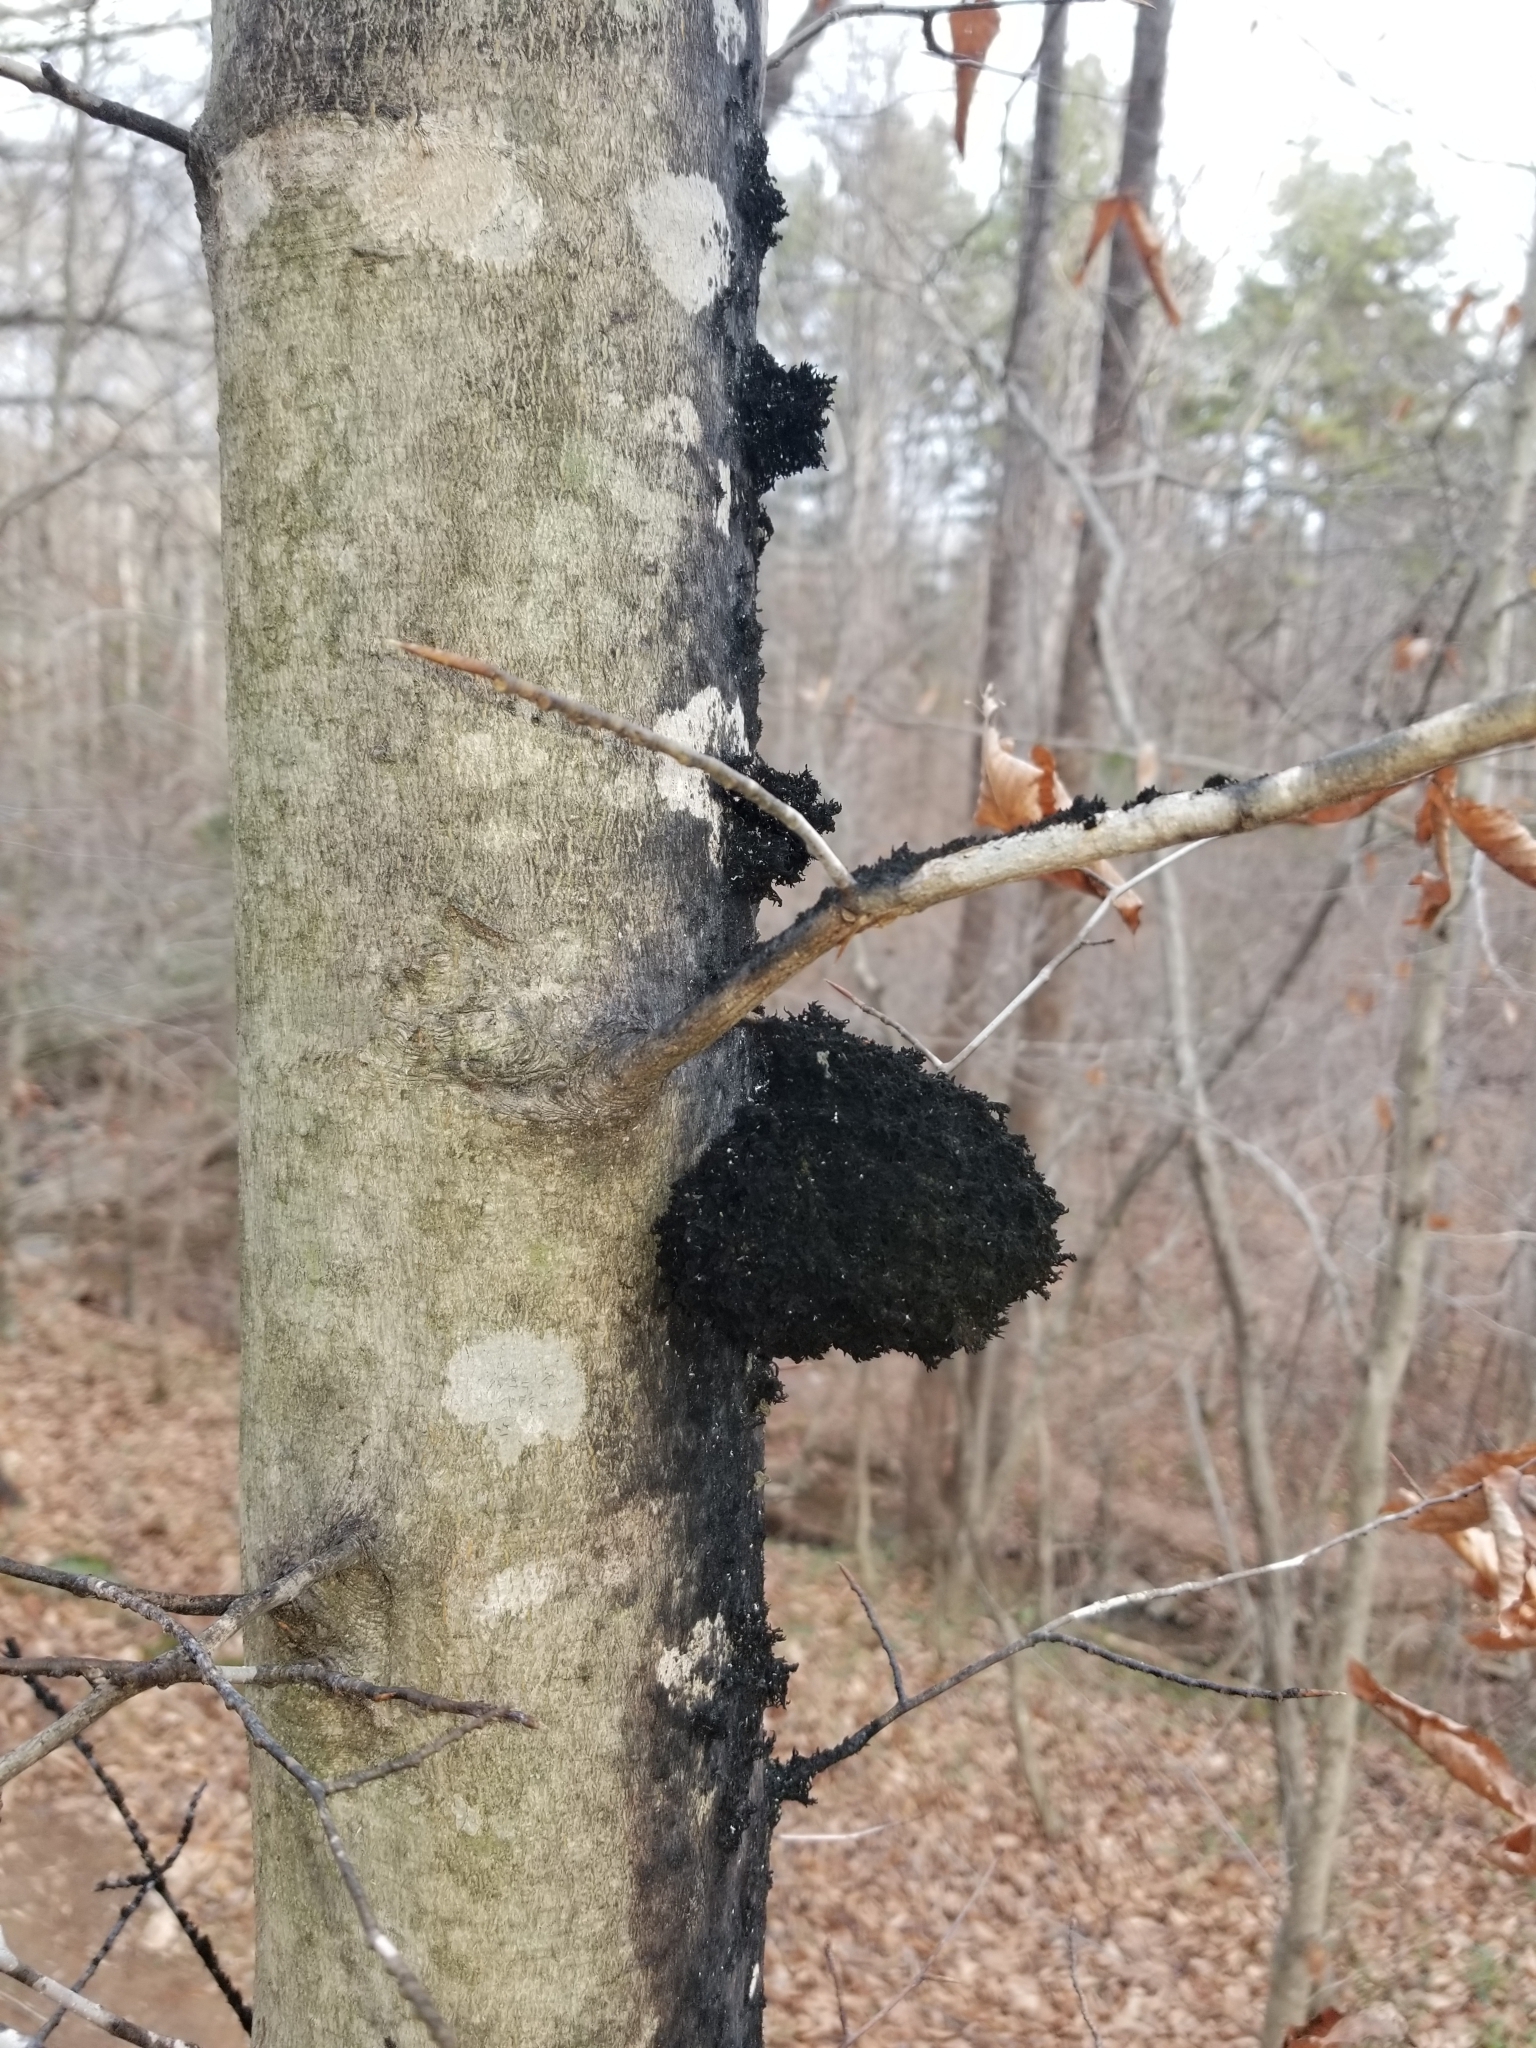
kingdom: Fungi
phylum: Ascomycota
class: Dothideomycetes
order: Capnodiales
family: Capnodiaceae
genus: Scorias
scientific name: Scorias spongiosa
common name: Black sooty mold
